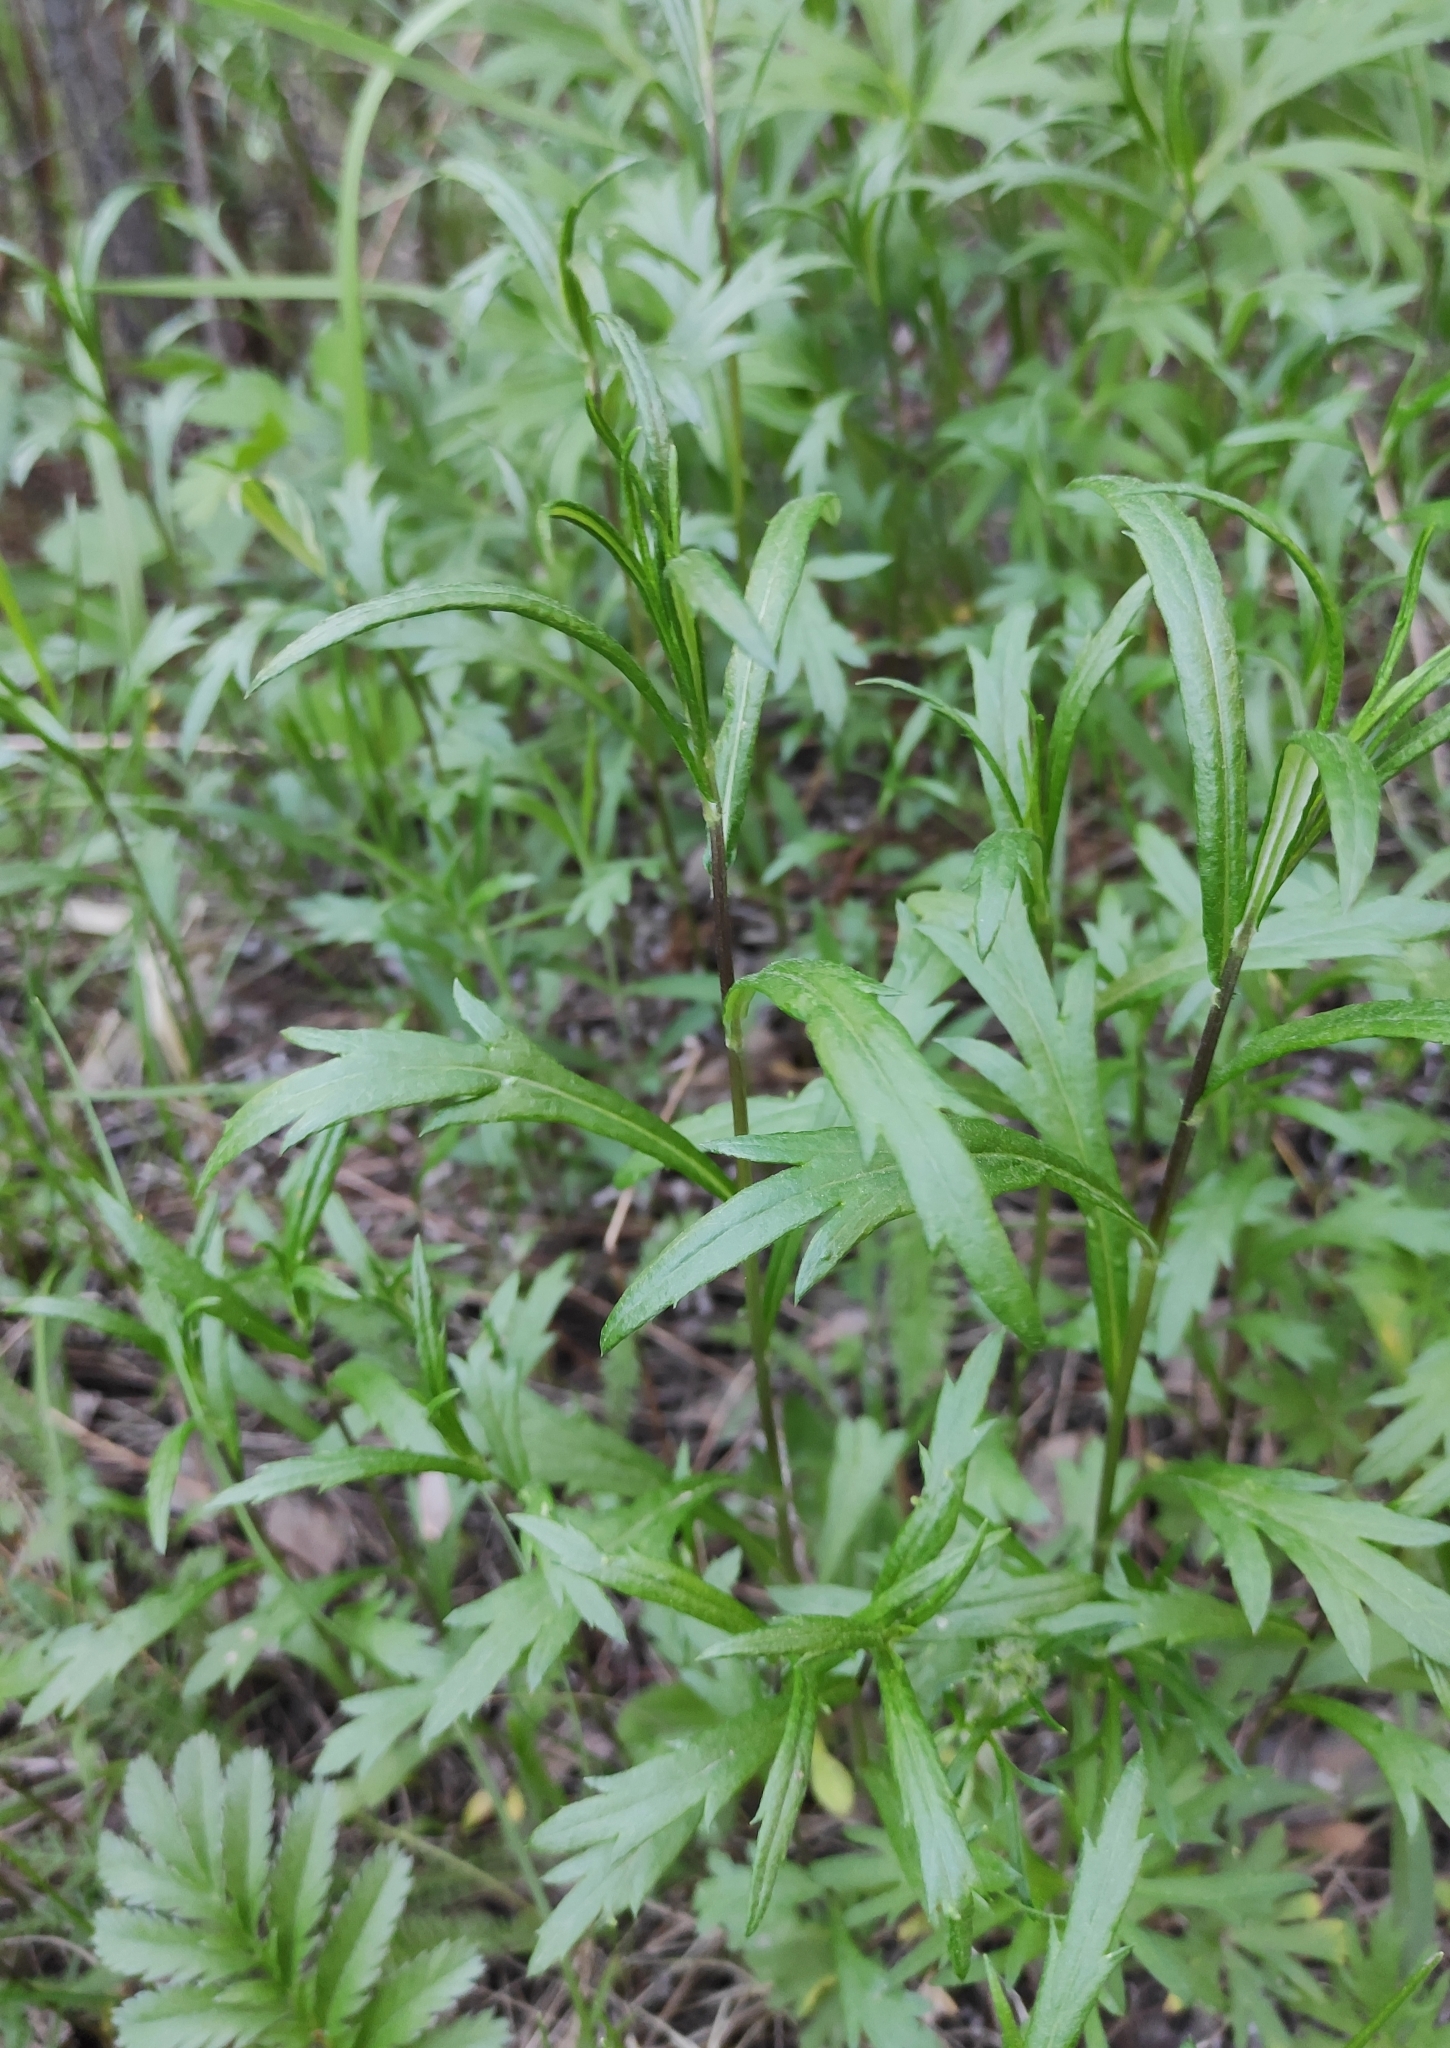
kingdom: Plantae
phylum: Tracheophyta
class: Magnoliopsida
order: Asterales
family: Asteraceae
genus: Artemisia
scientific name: Artemisia integrifolia
